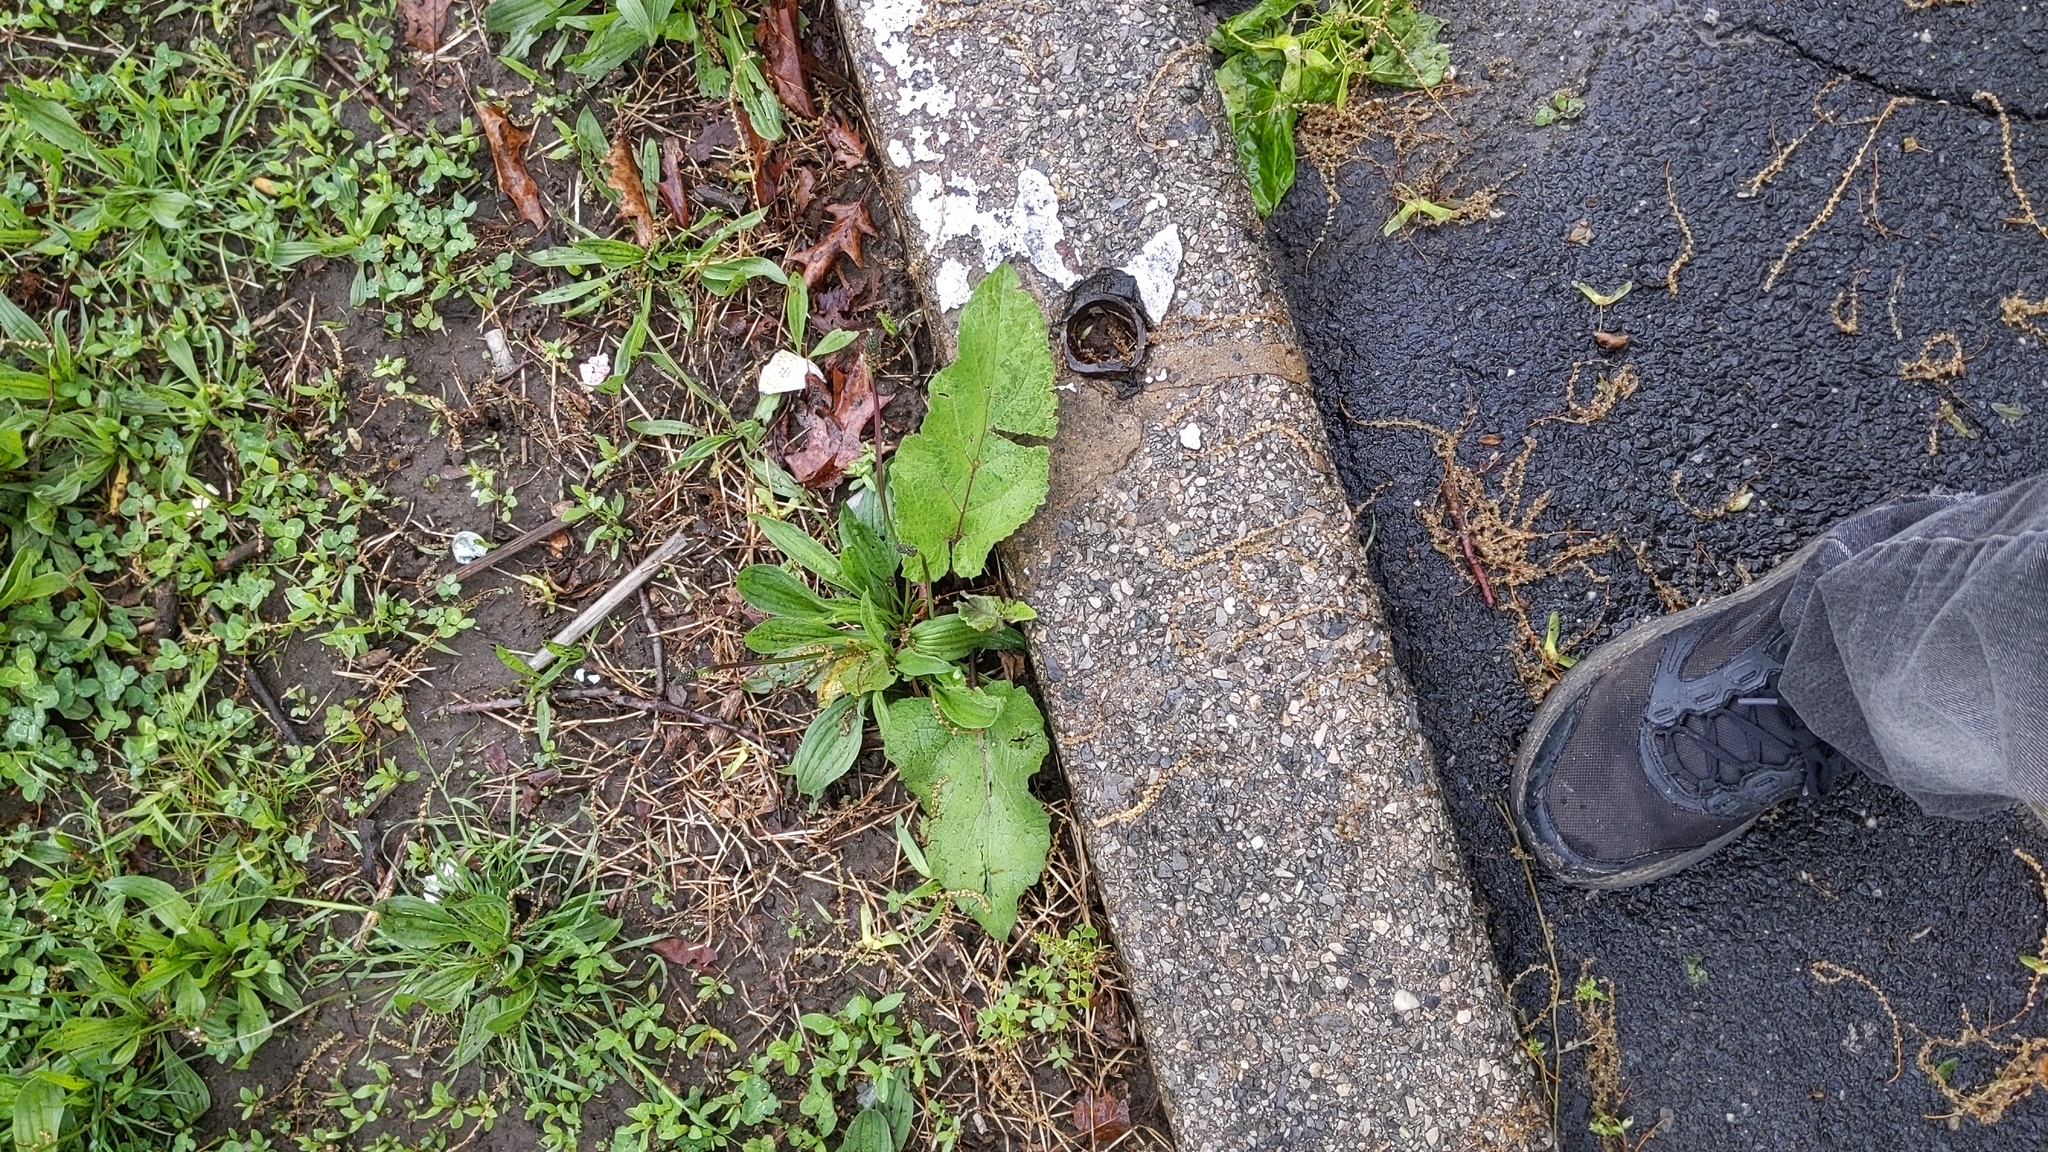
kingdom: Plantae
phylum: Tracheophyta
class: Magnoliopsida
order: Lamiales
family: Plantaginaceae
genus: Plantago
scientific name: Plantago lanceolata
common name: Ribwort plantain
